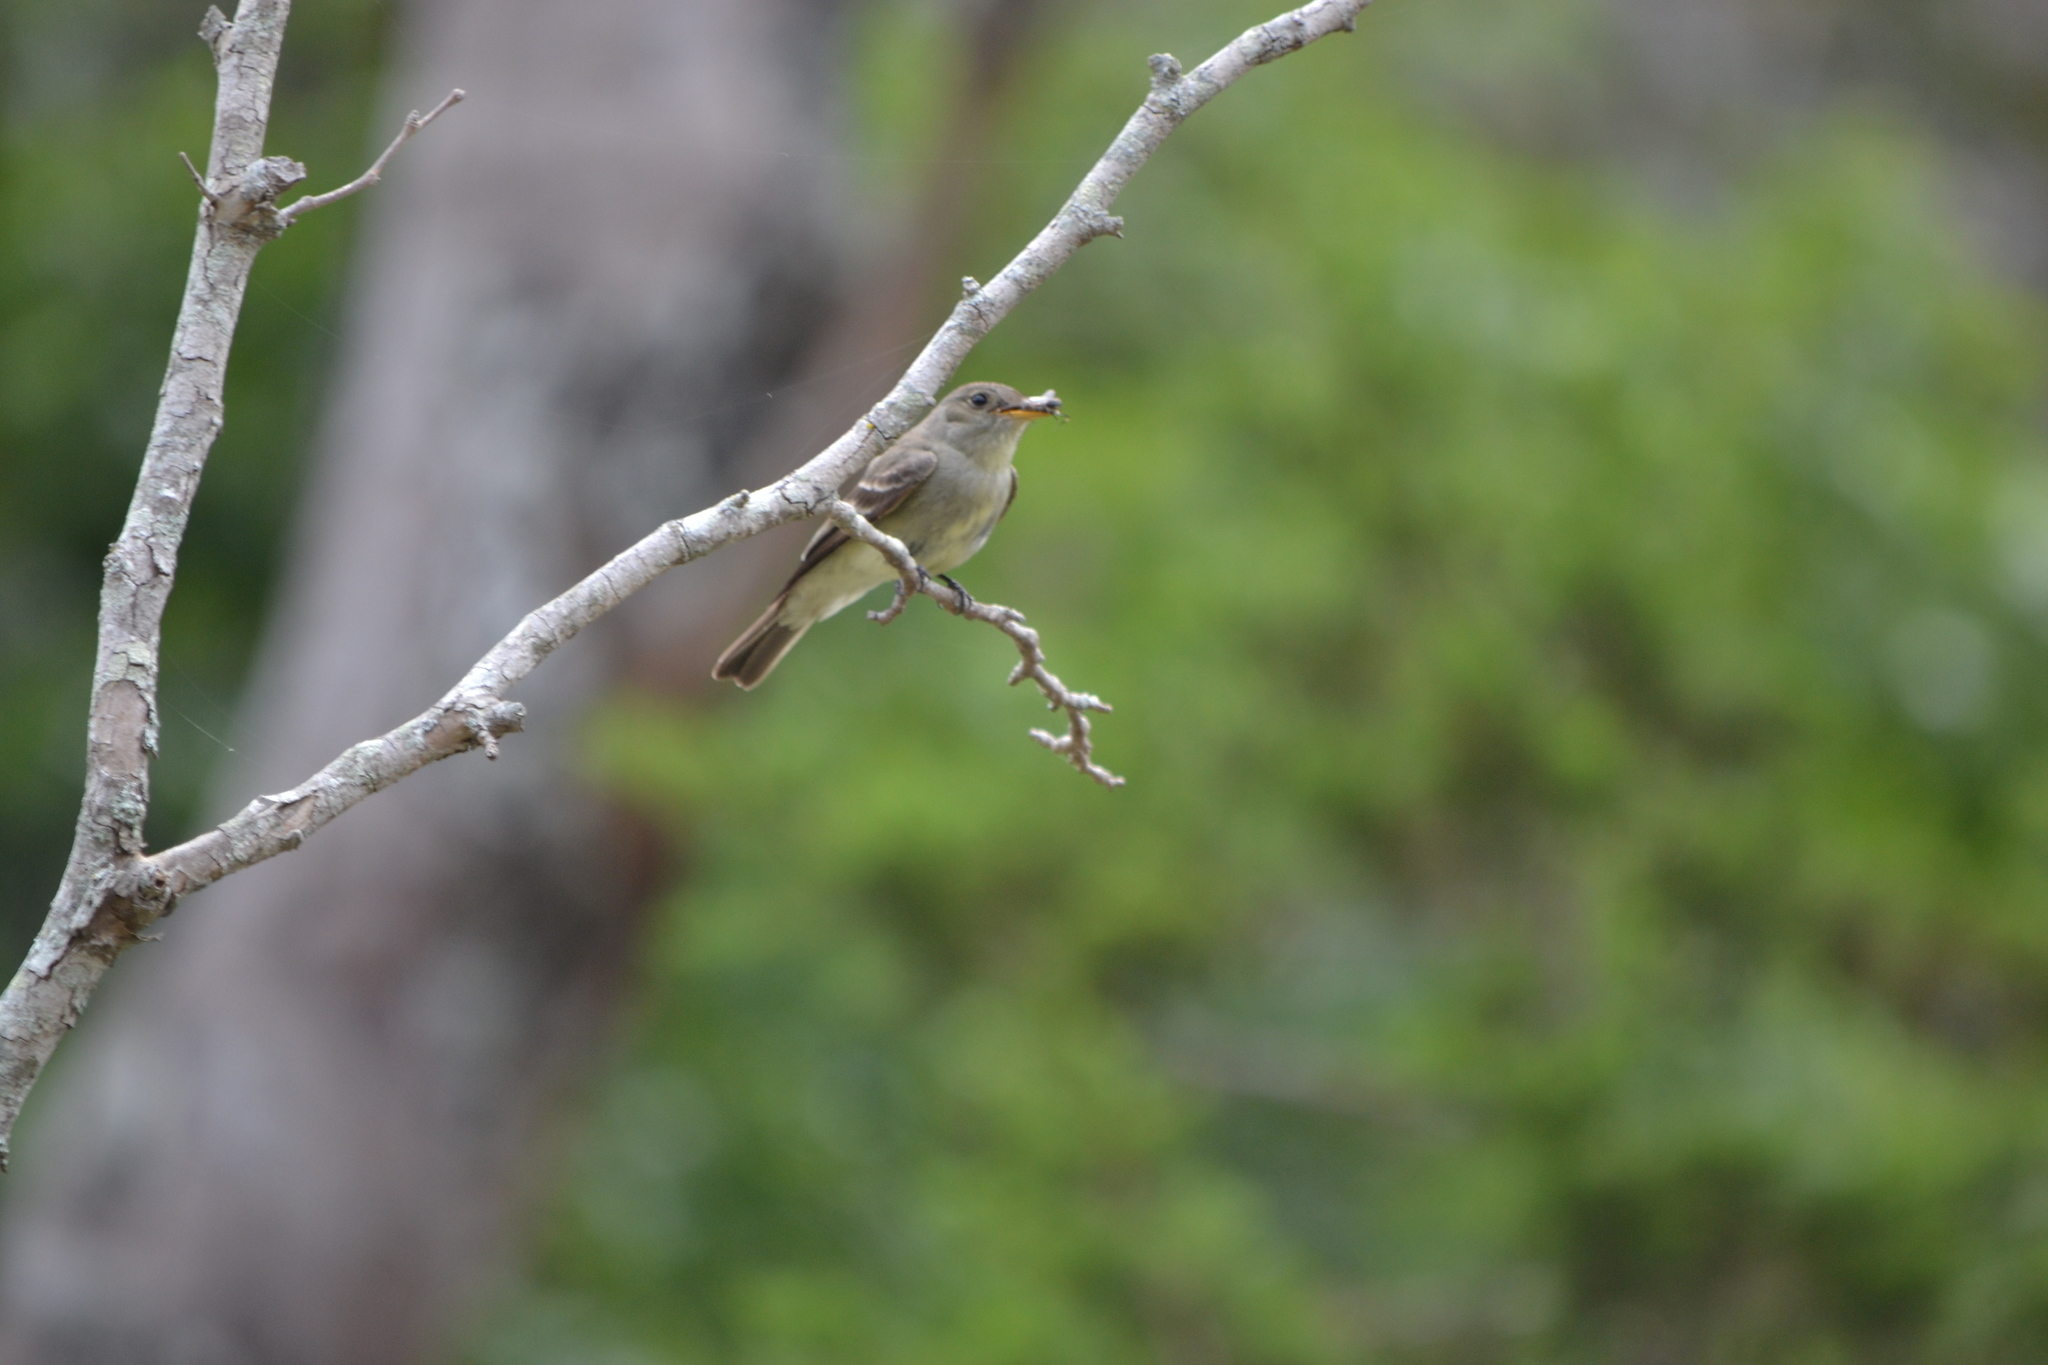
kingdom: Animalia
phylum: Chordata
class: Aves
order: Passeriformes
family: Tyrannidae
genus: Contopus
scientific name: Contopus virens
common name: Eastern wood-pewee
